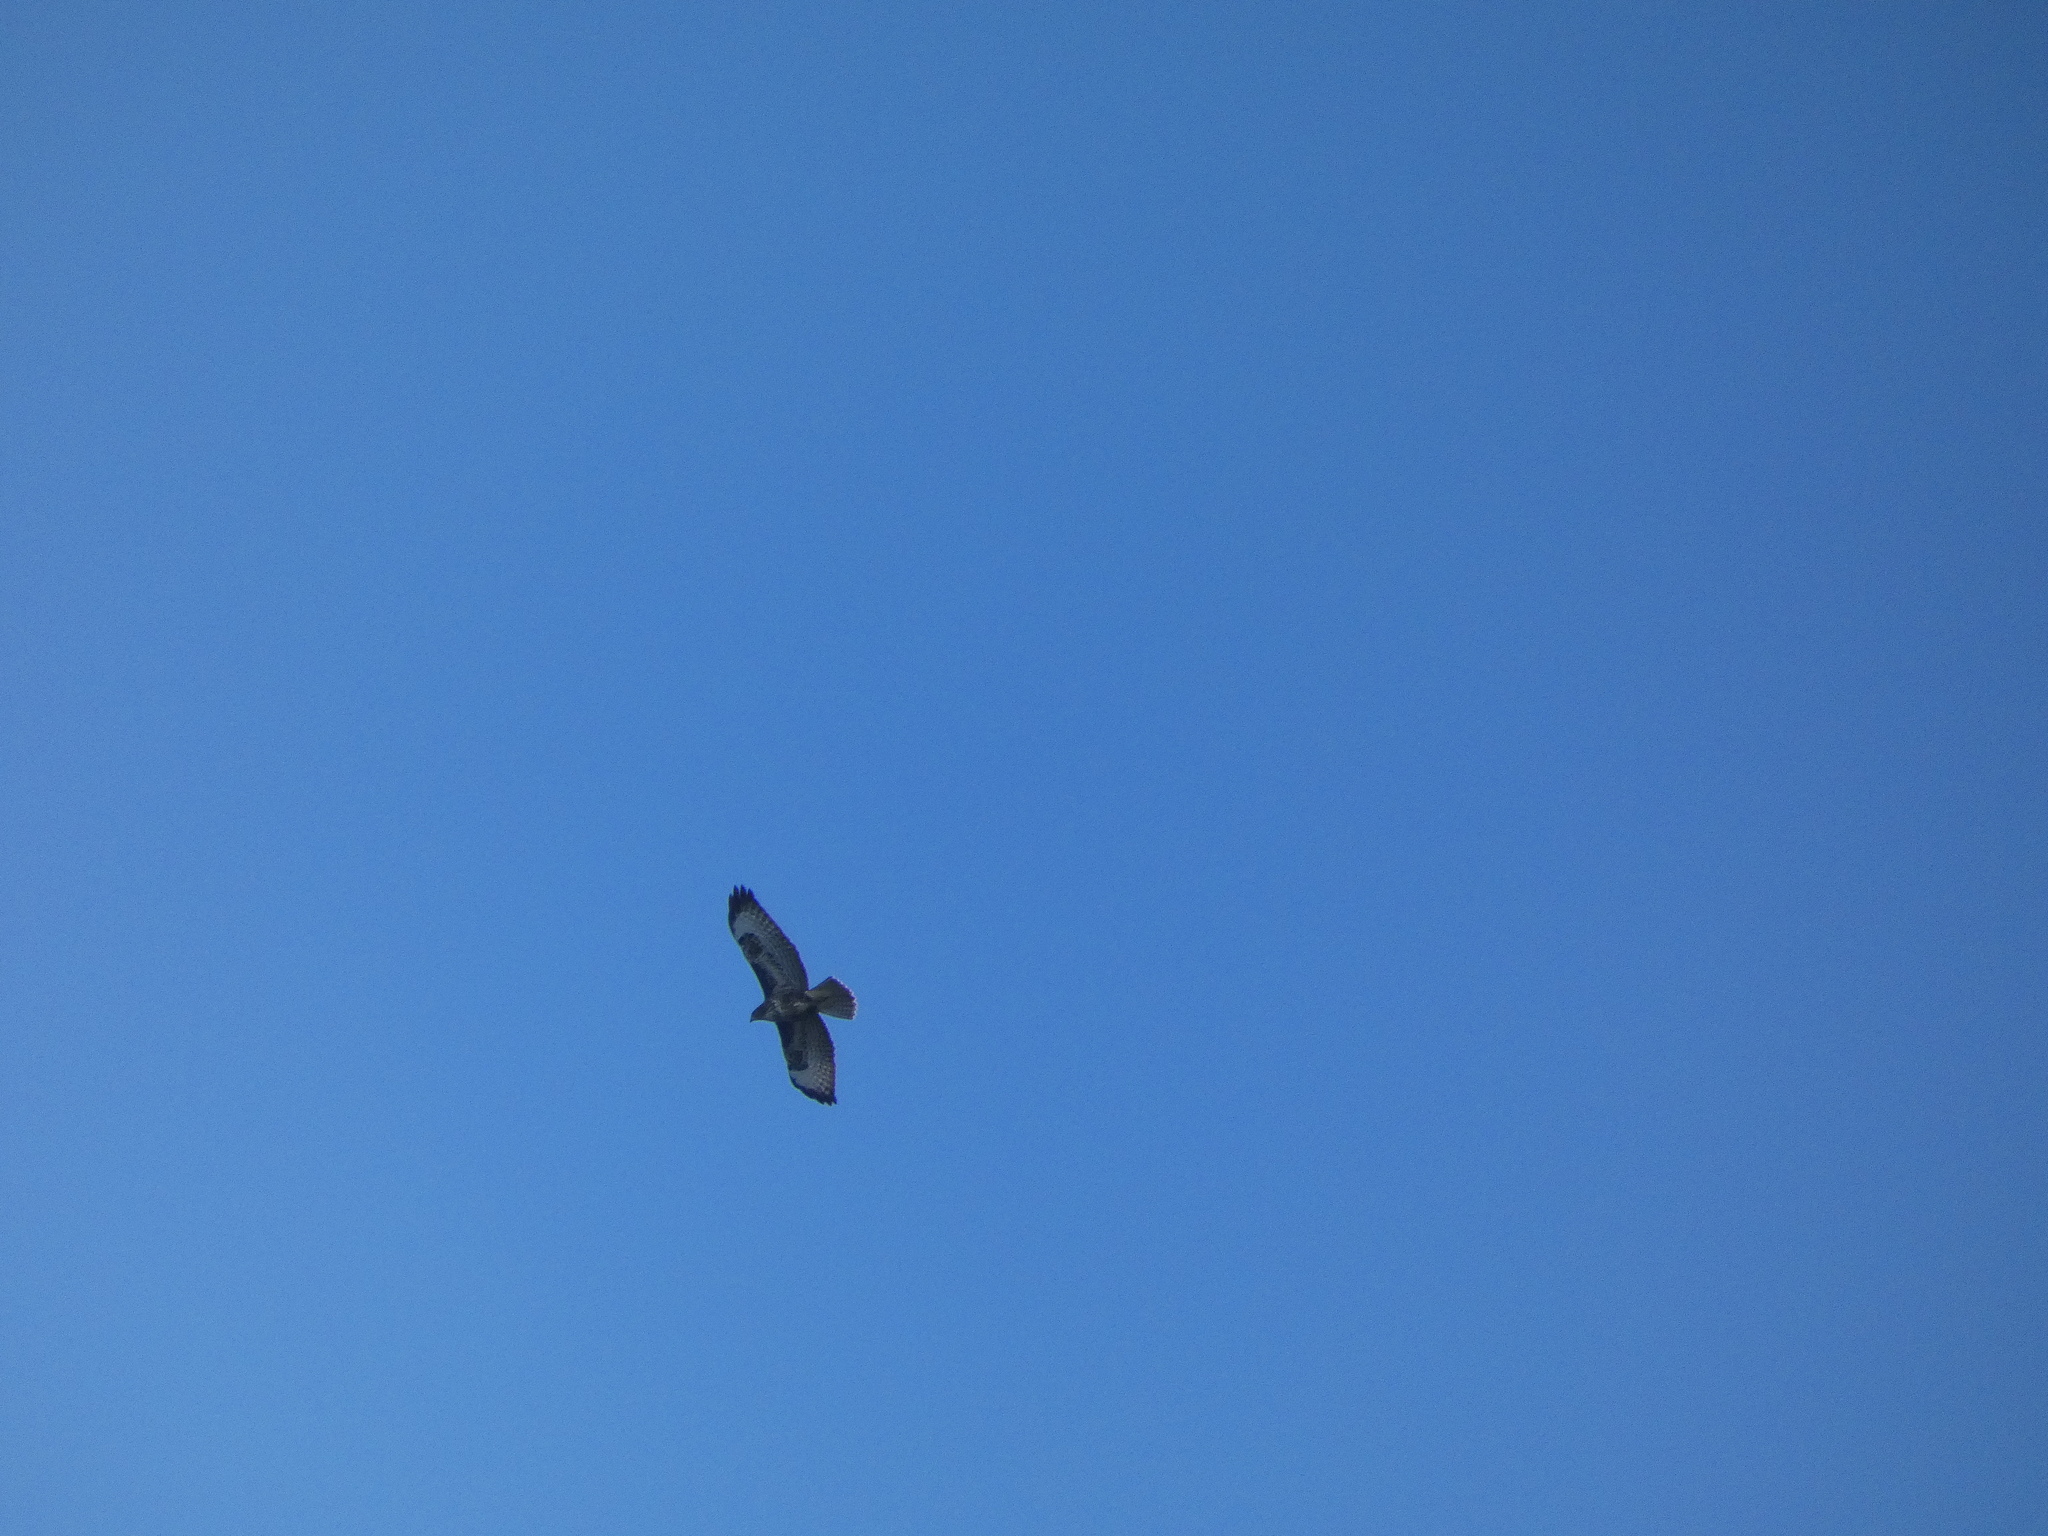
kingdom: Animalia
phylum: Chordata
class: Aves
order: Accipitriformes
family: Accipitridae
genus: Buteo
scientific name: Buteo buteo
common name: Common buzzard
